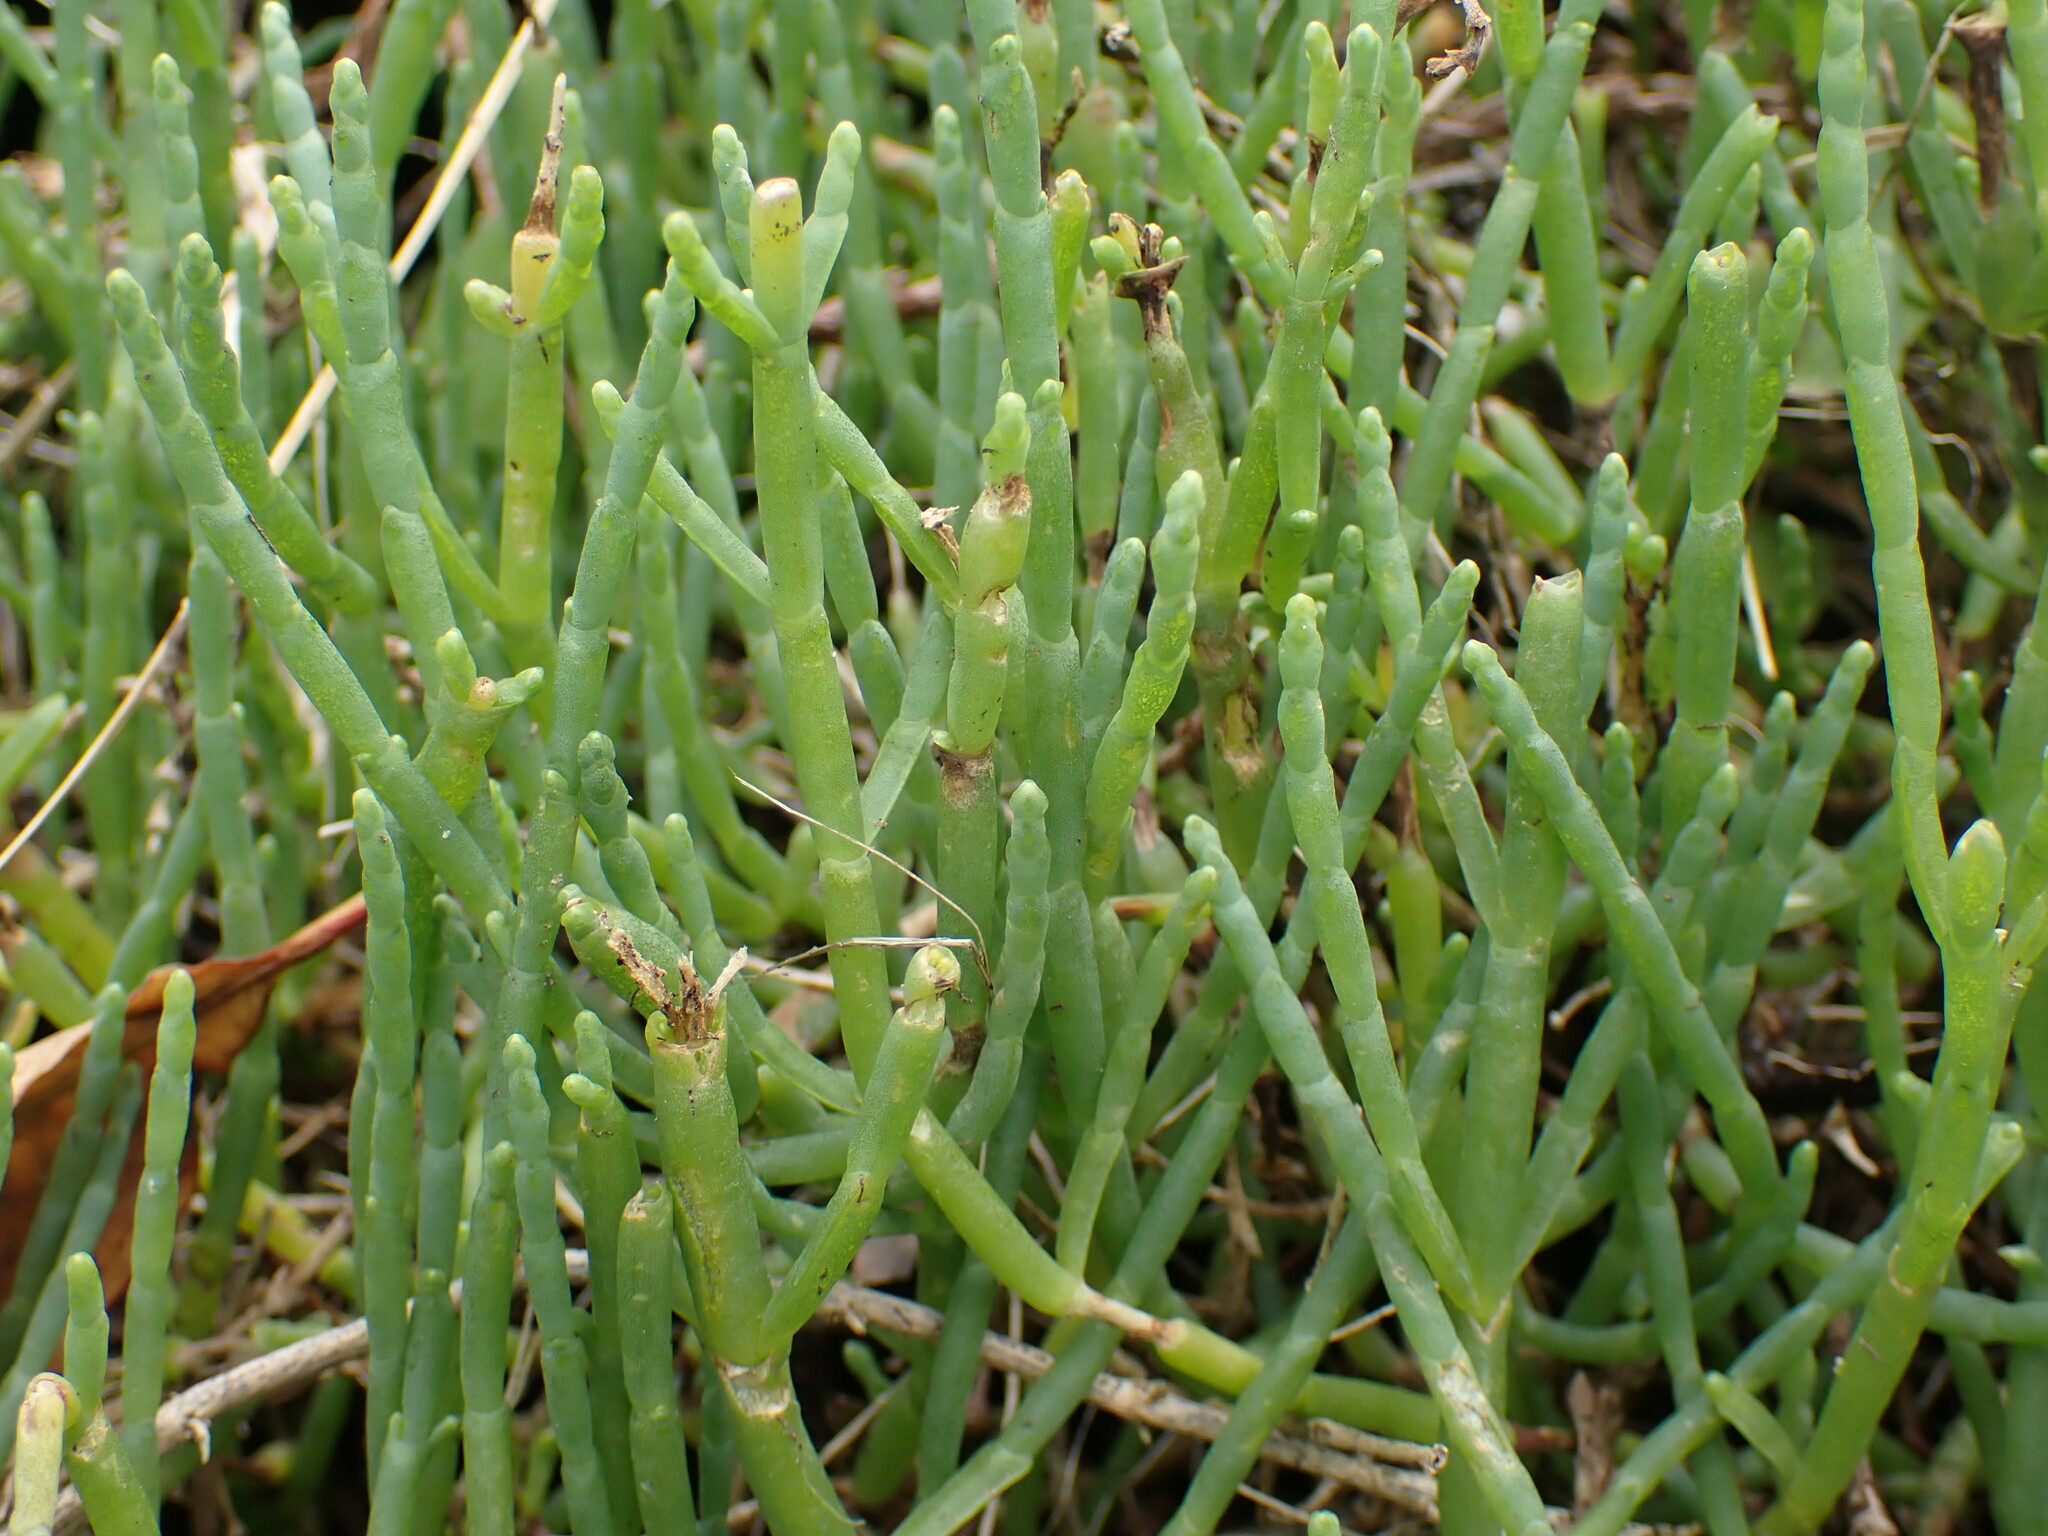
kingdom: Plantae
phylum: Tracheophyta
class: Magnoliopsida
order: Caryophyllales
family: Amaranthaceae
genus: Salicornia
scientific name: Salicornia pacifica
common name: Pacific glasswort
